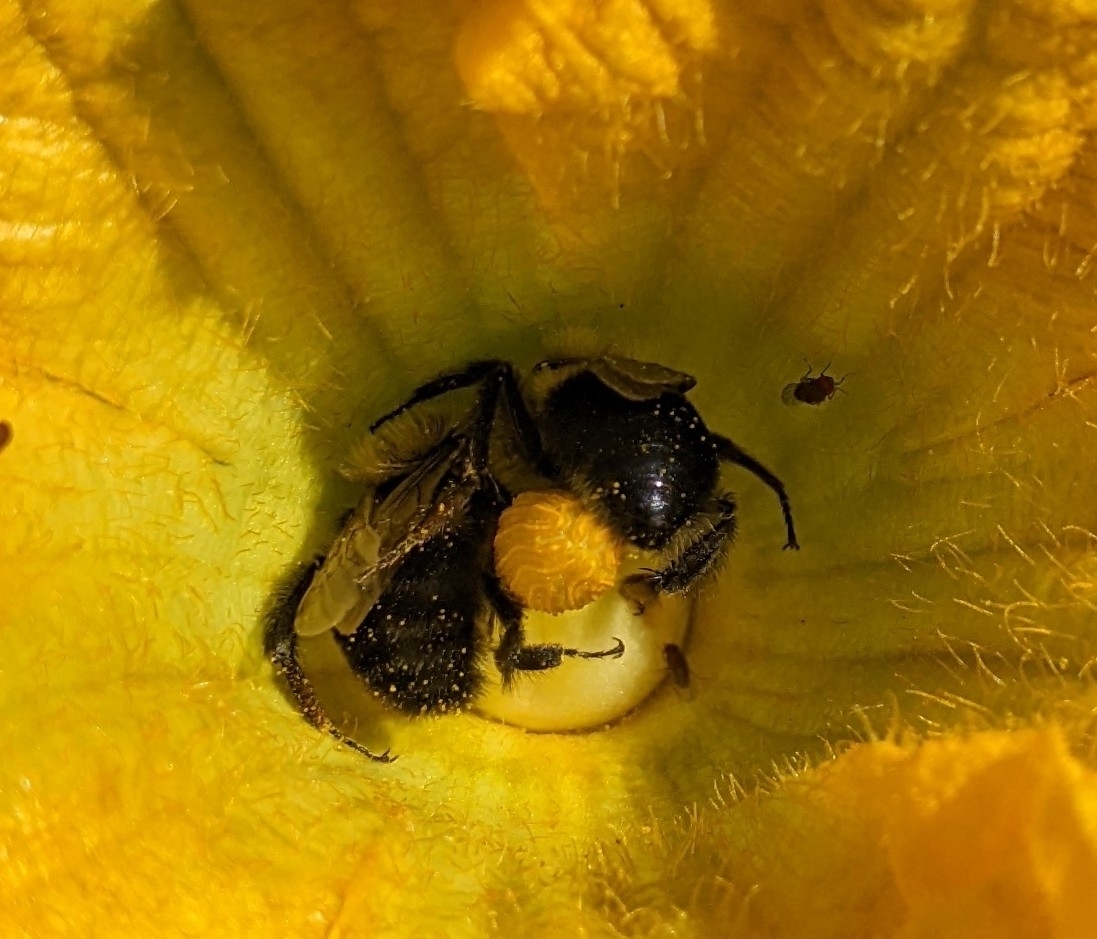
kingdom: Animalia
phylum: Arthropoda
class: Insecta
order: Hymenoptera
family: Apidae
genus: Bombus
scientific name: Bombus impatiens
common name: Common eastern bumble bee
